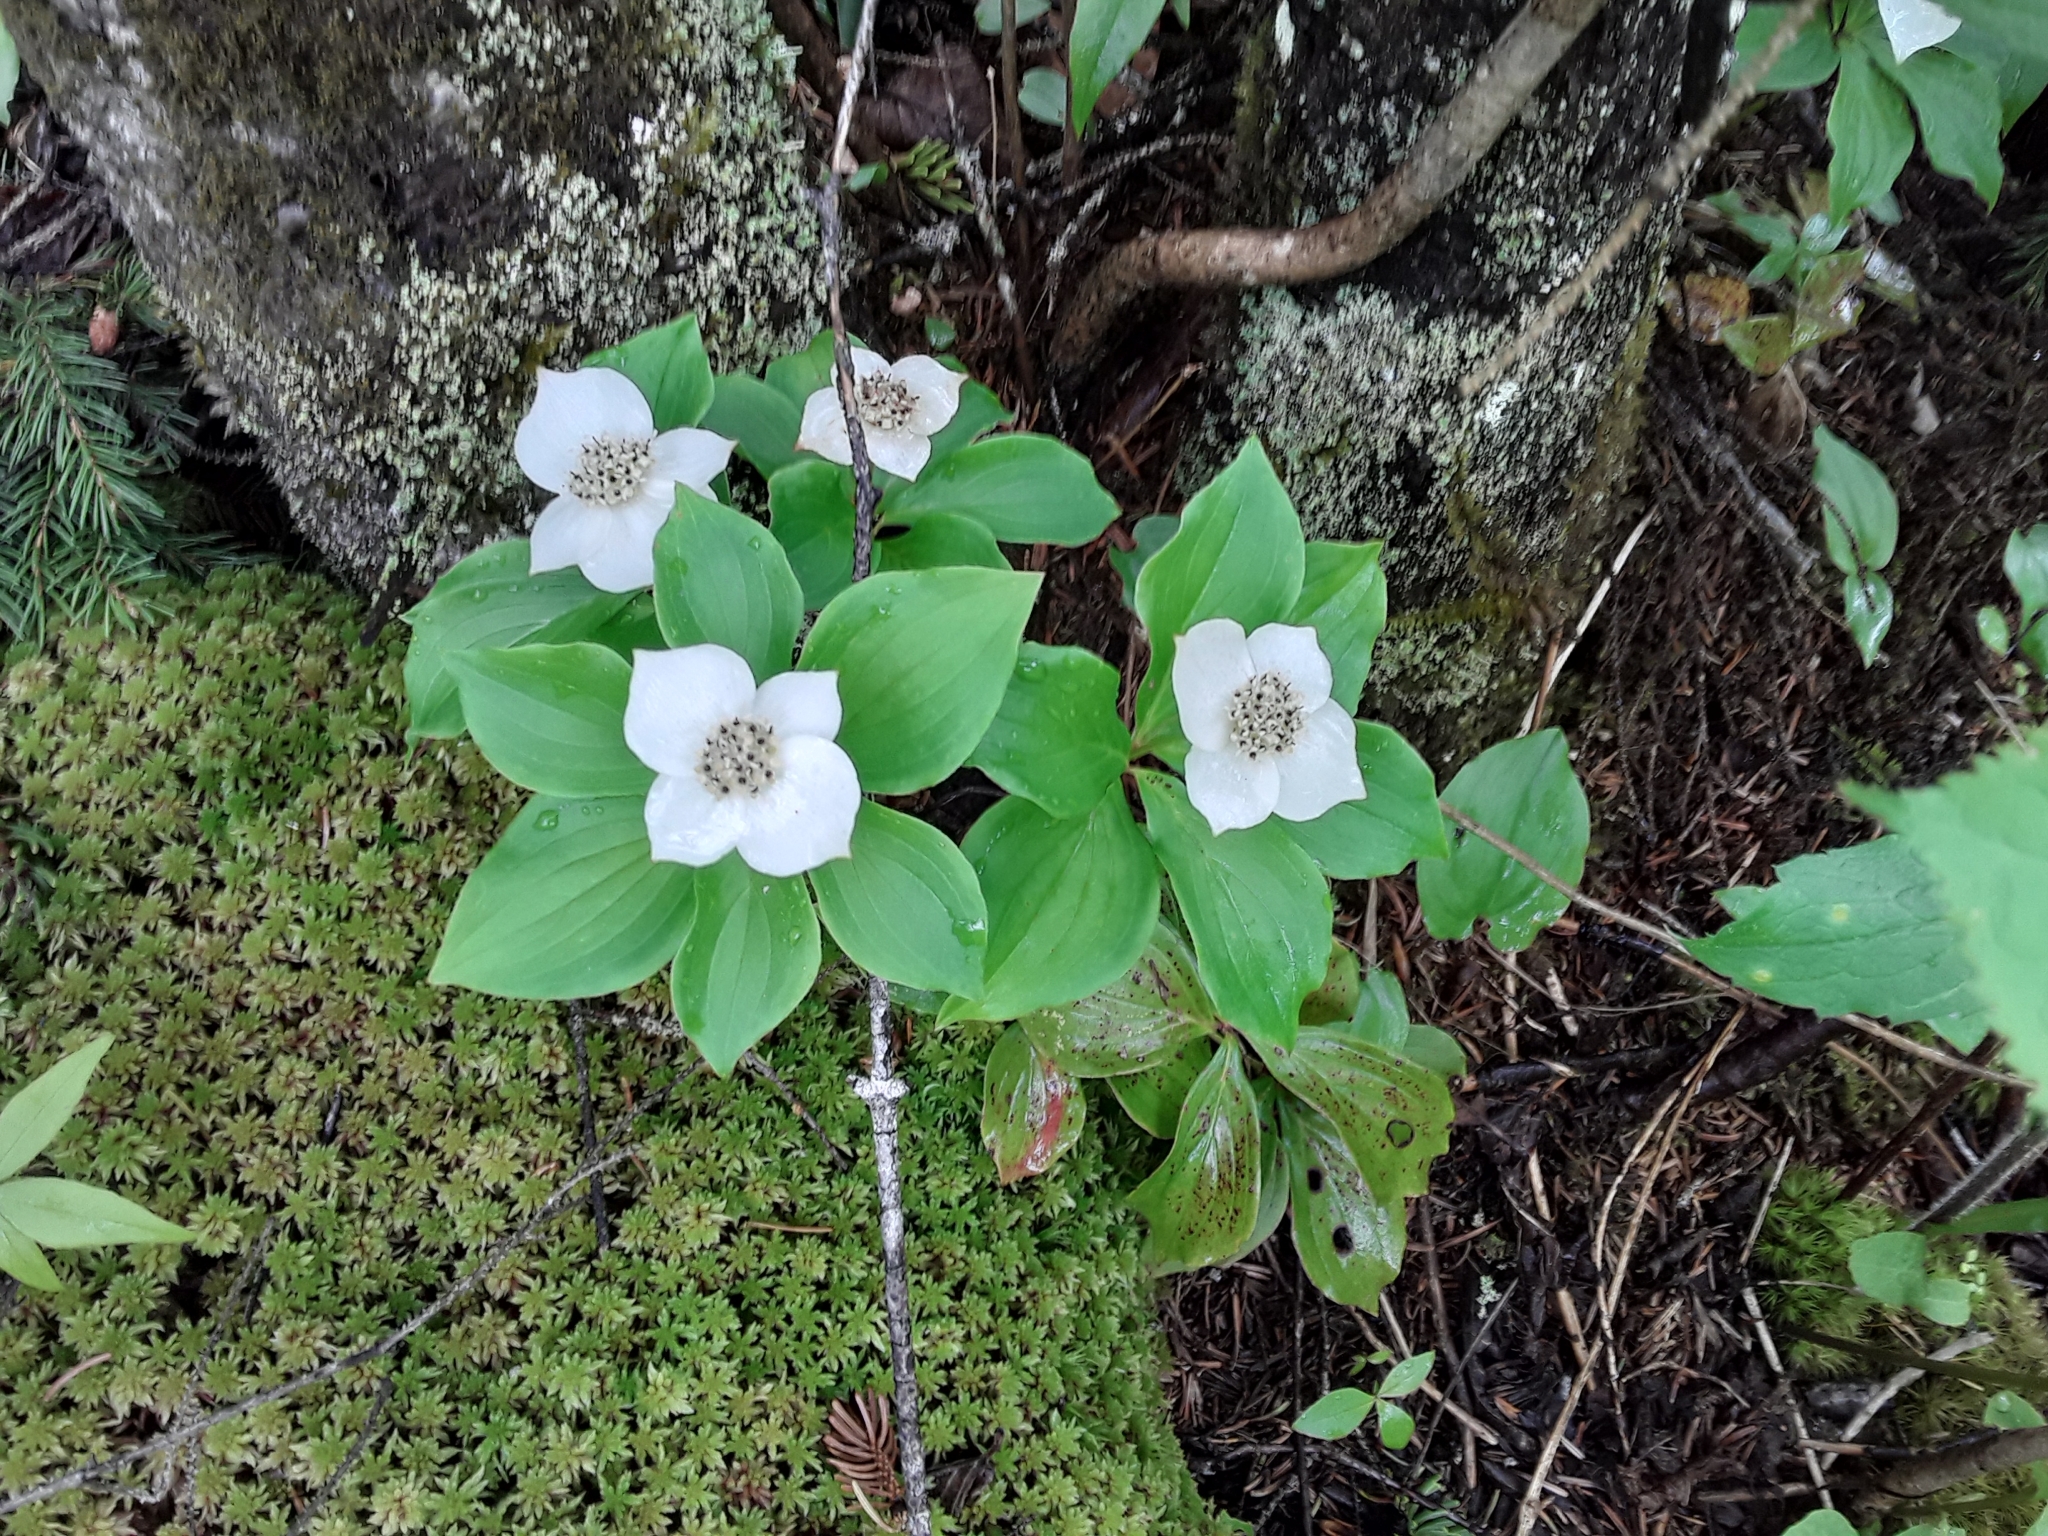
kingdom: Plantae
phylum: Tracheophyta
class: Magnoliopsida
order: Cornales
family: Cornaceae
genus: Cornus
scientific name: Cornus canadensis
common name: Creeping dogwood
